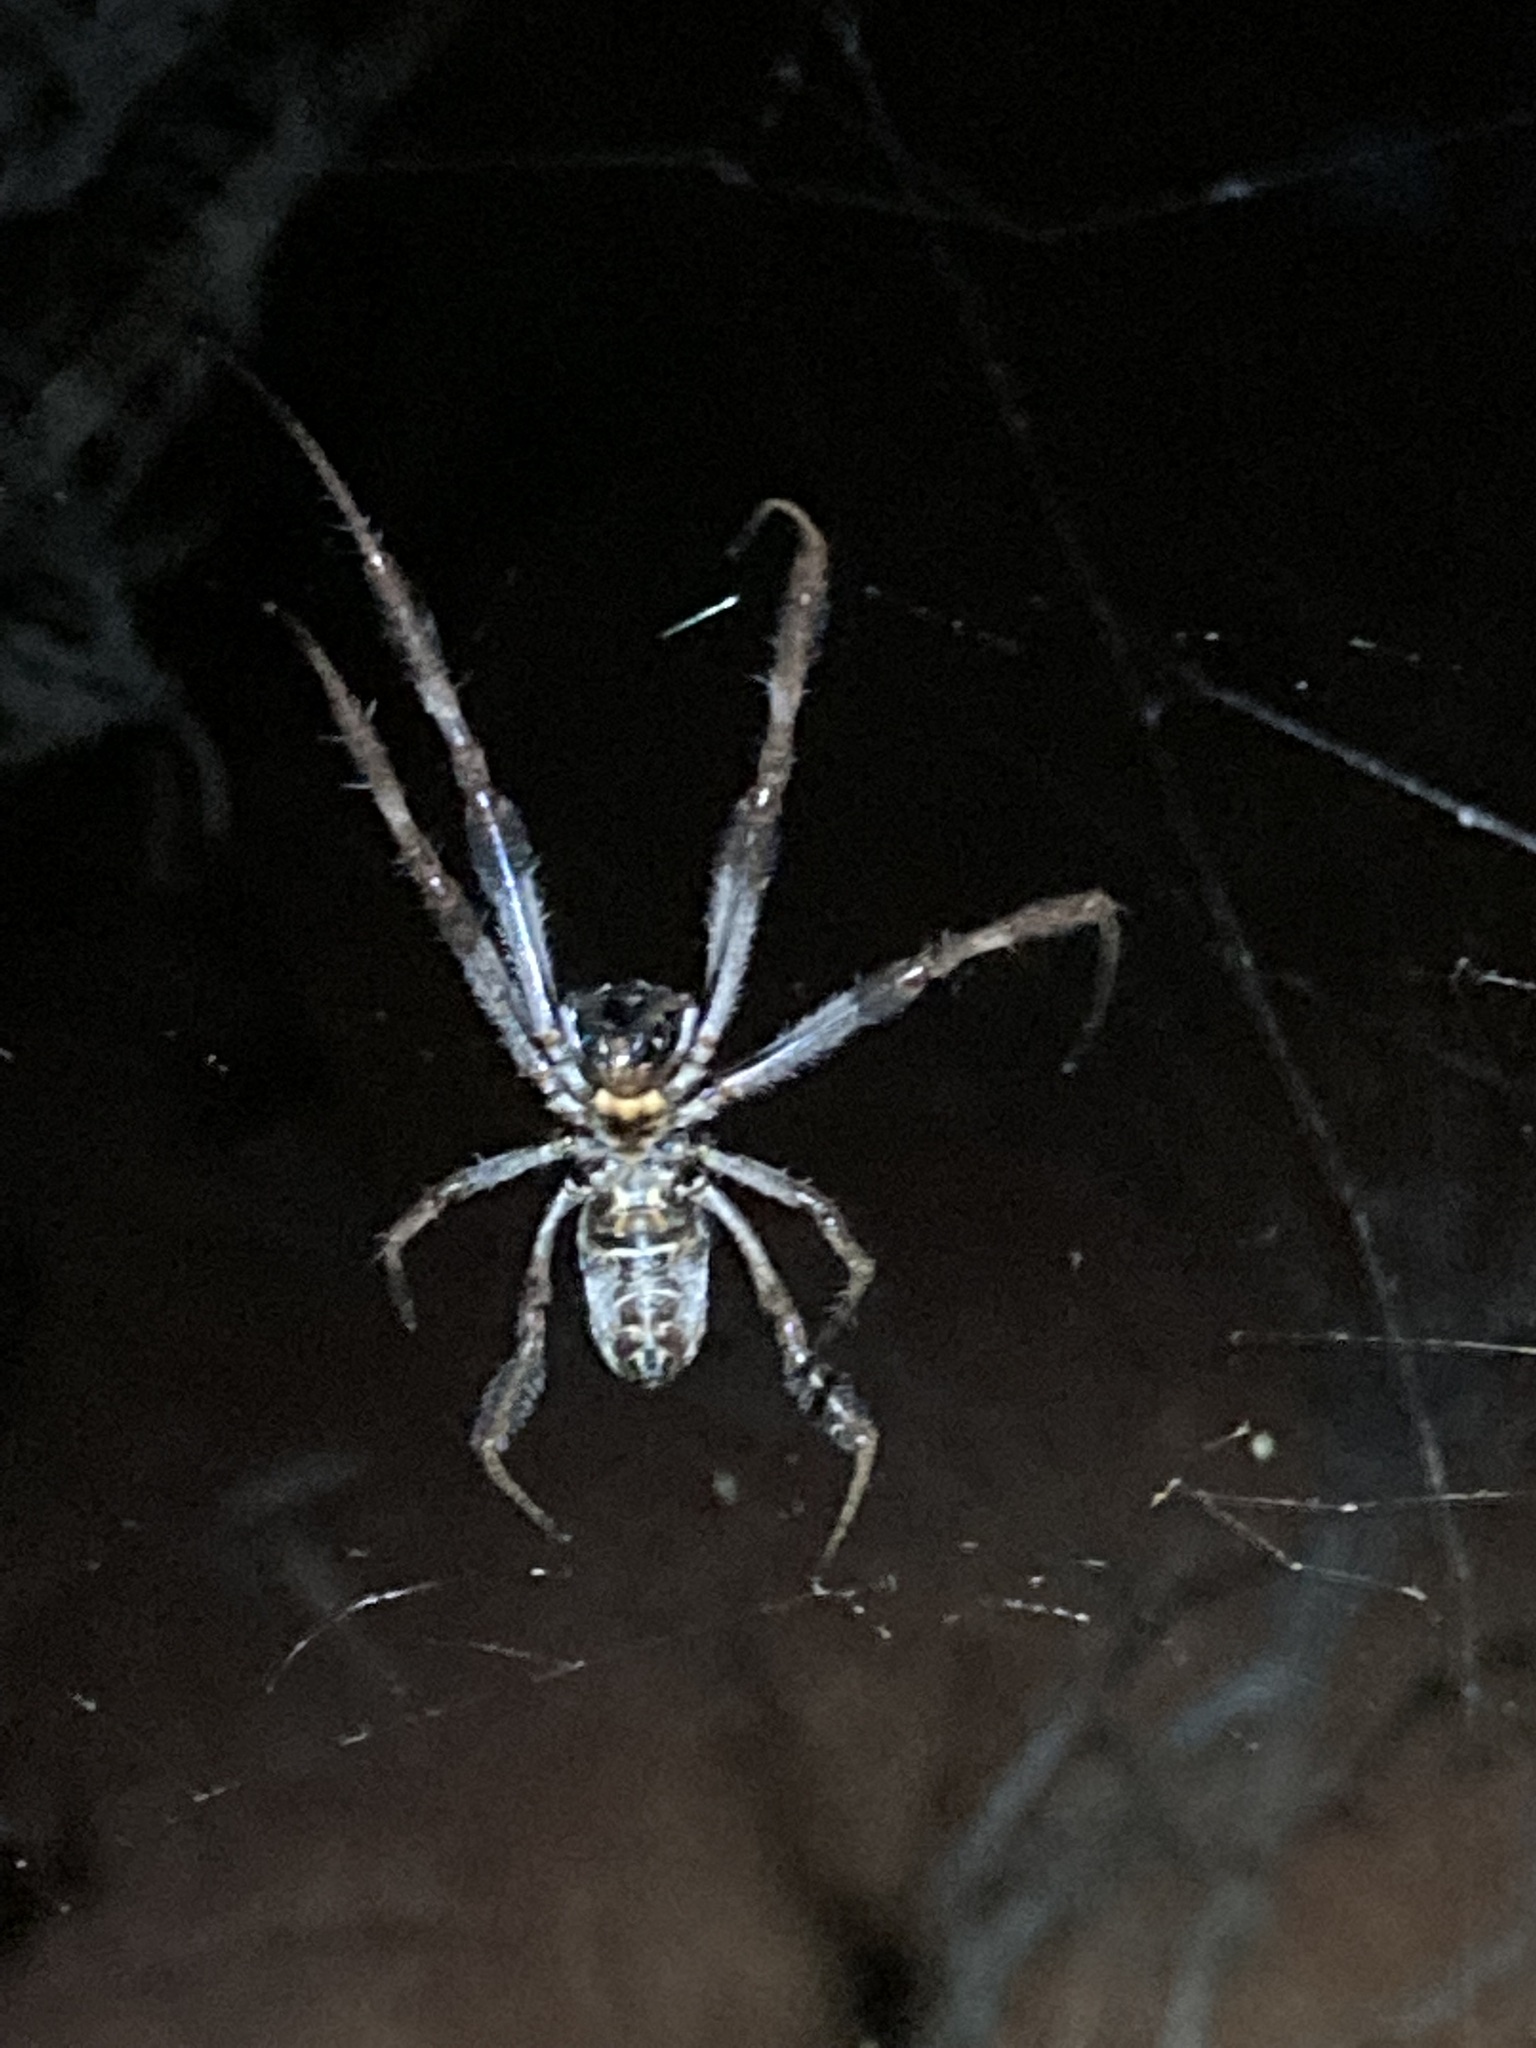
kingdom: Animalia
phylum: Arthropoda
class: Arachnida
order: Araneae
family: Araneidae
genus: Trichonephila
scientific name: Trichonephila edulis
